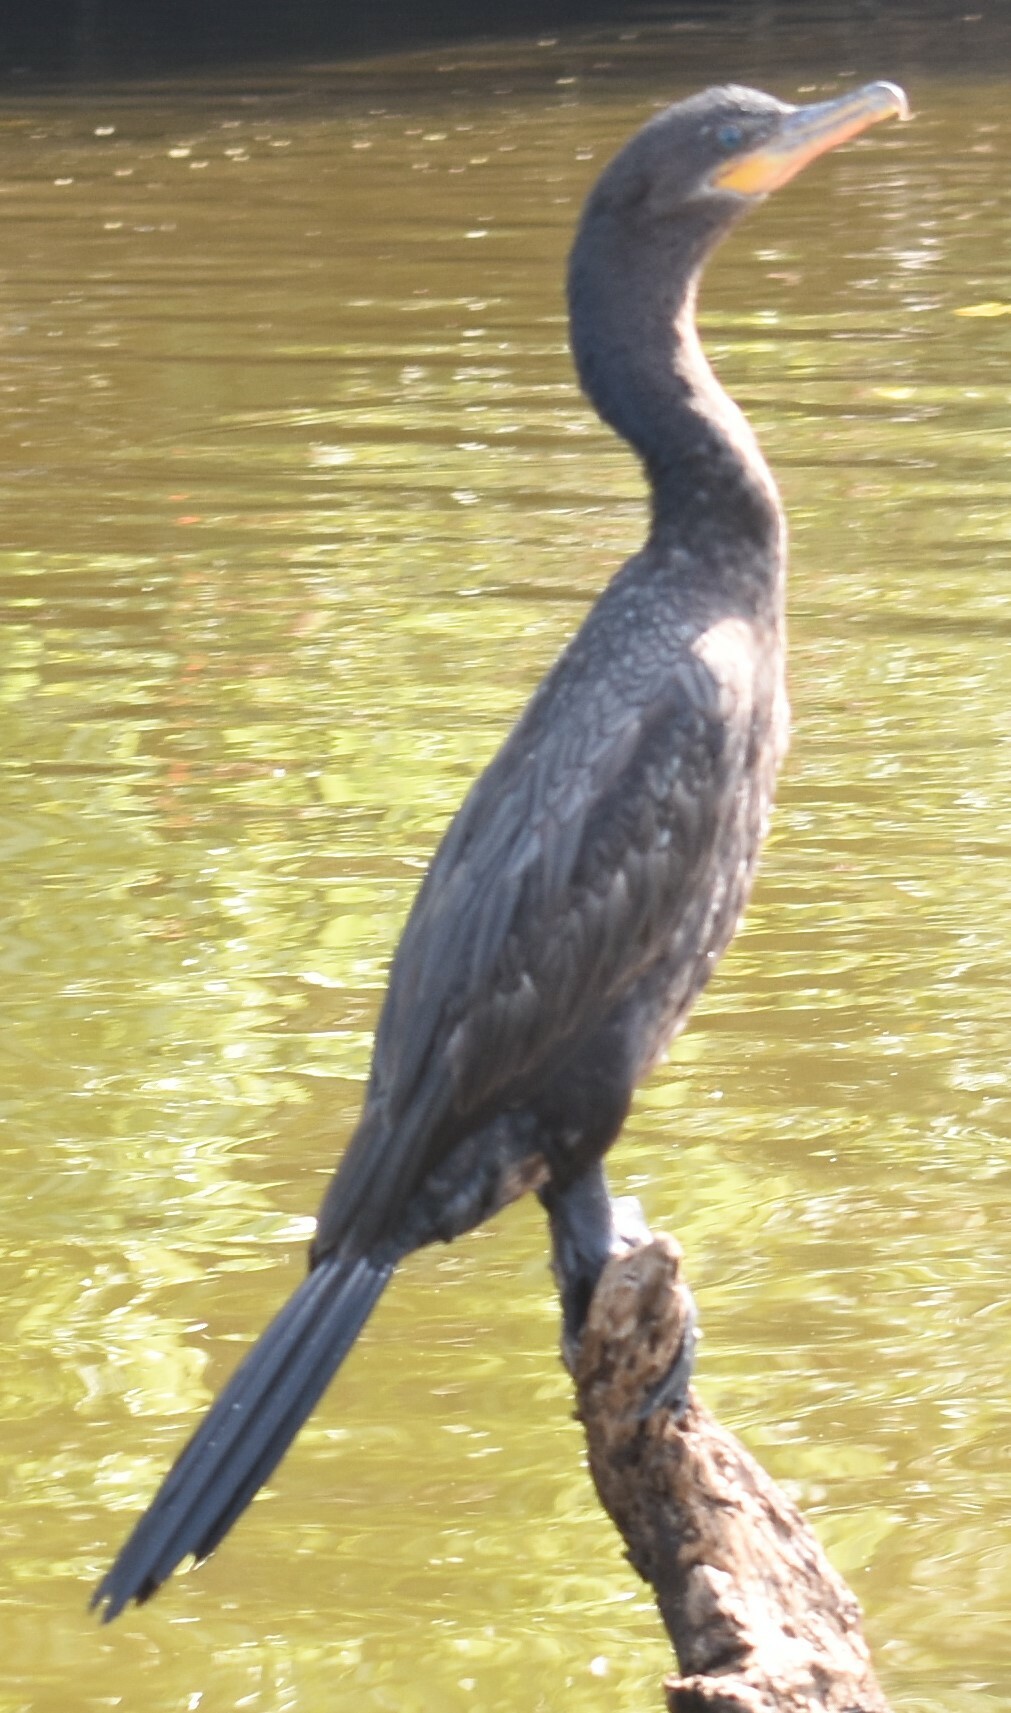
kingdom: Animalia
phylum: Chordata
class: Aves
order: Suliformes
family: Phalacrocoracidae
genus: Phalacrocorax
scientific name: Phalacrocorax brasilianus
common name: Neotropic cormorant
